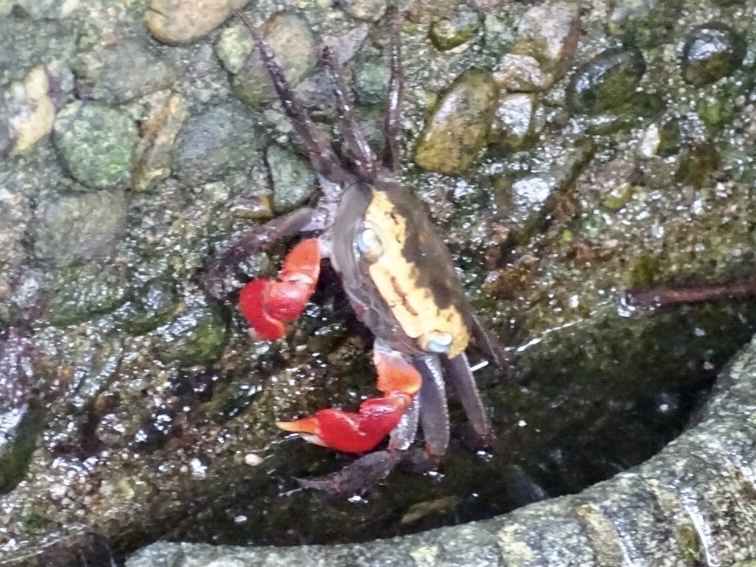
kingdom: Animalia
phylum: Arthropoda
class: Malacostraca
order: Decapoda
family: Sesarmidae
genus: Chiromantes
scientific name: Chiromantes haematocheir
